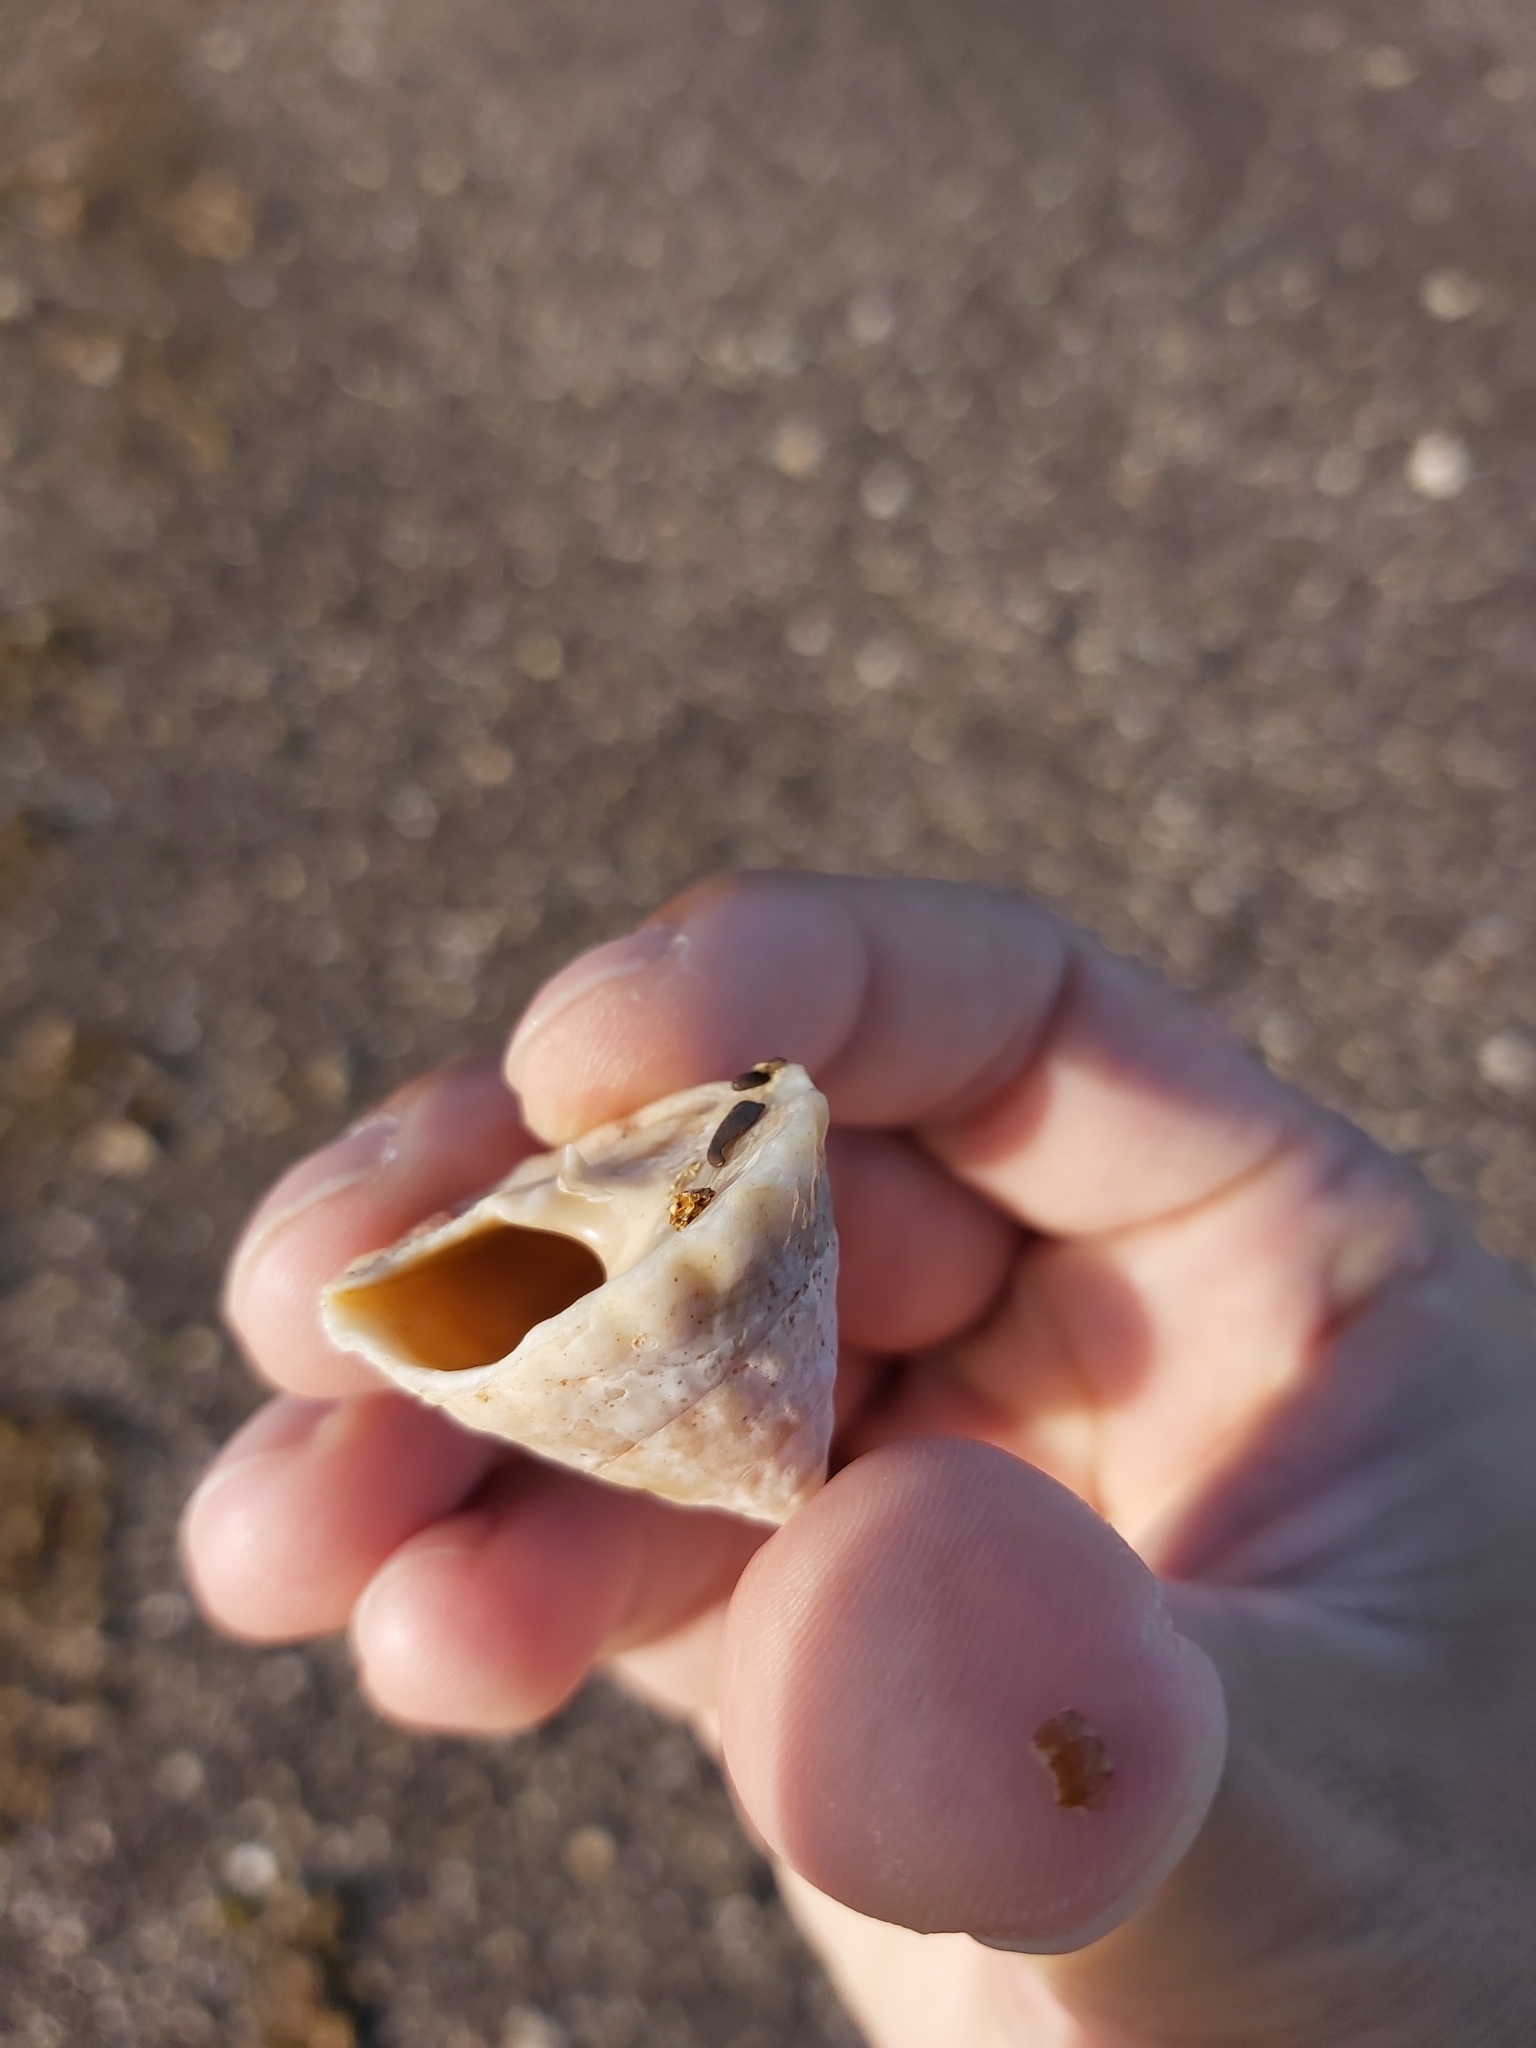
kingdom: Animalia
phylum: Mollusca
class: Gastropoda
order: Trochida
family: Turbinidae
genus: Astralium
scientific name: Astralium tentoriiforme
